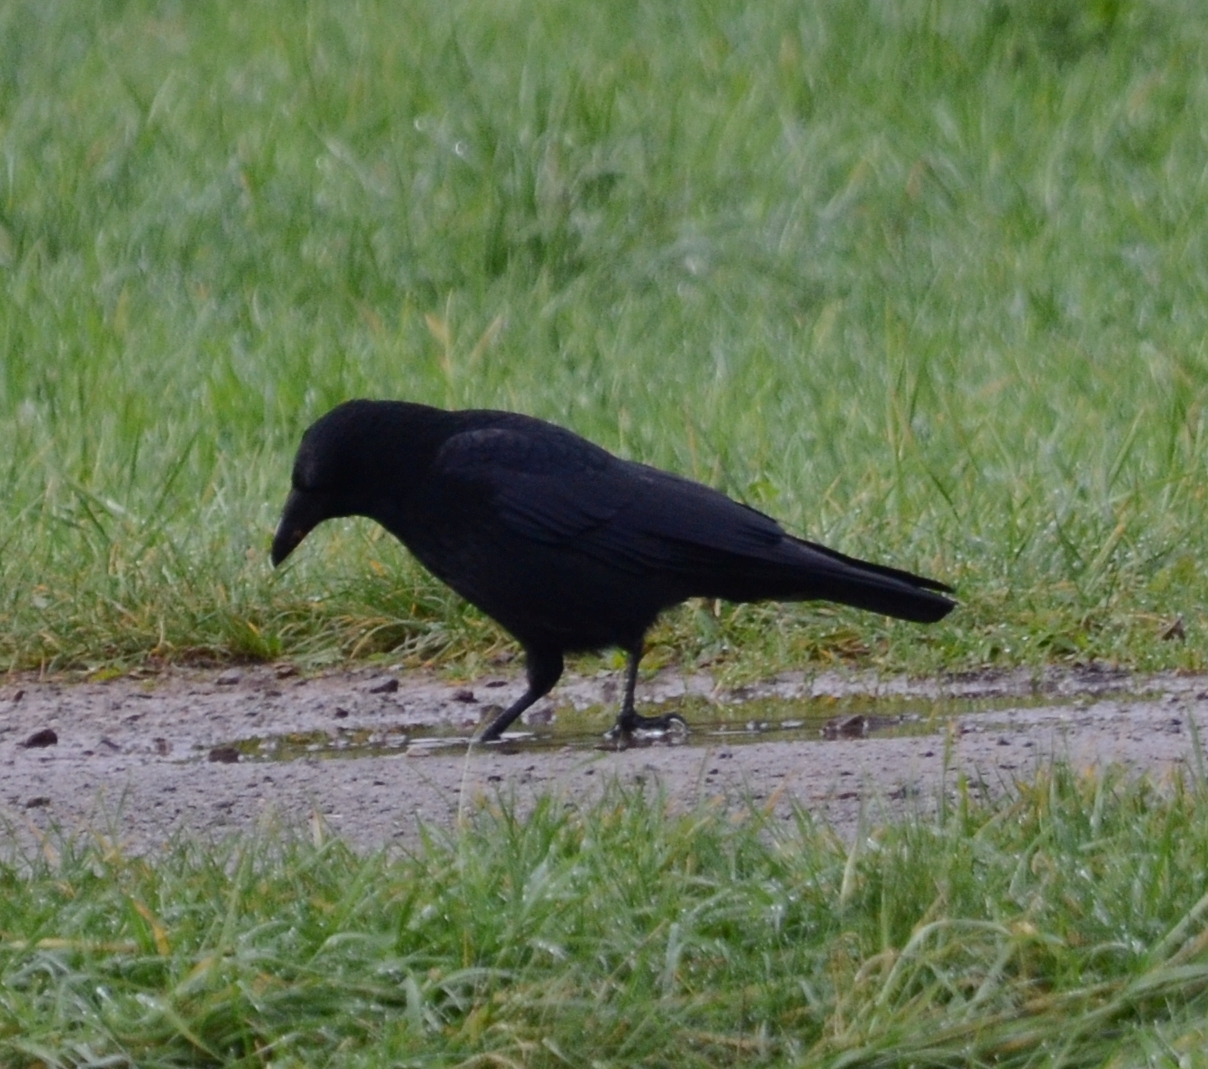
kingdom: Animalia
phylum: Chordata
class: Aves
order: Passeriformes
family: Corvidae
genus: Corvus
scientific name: Corvus corone
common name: Carrion crow
